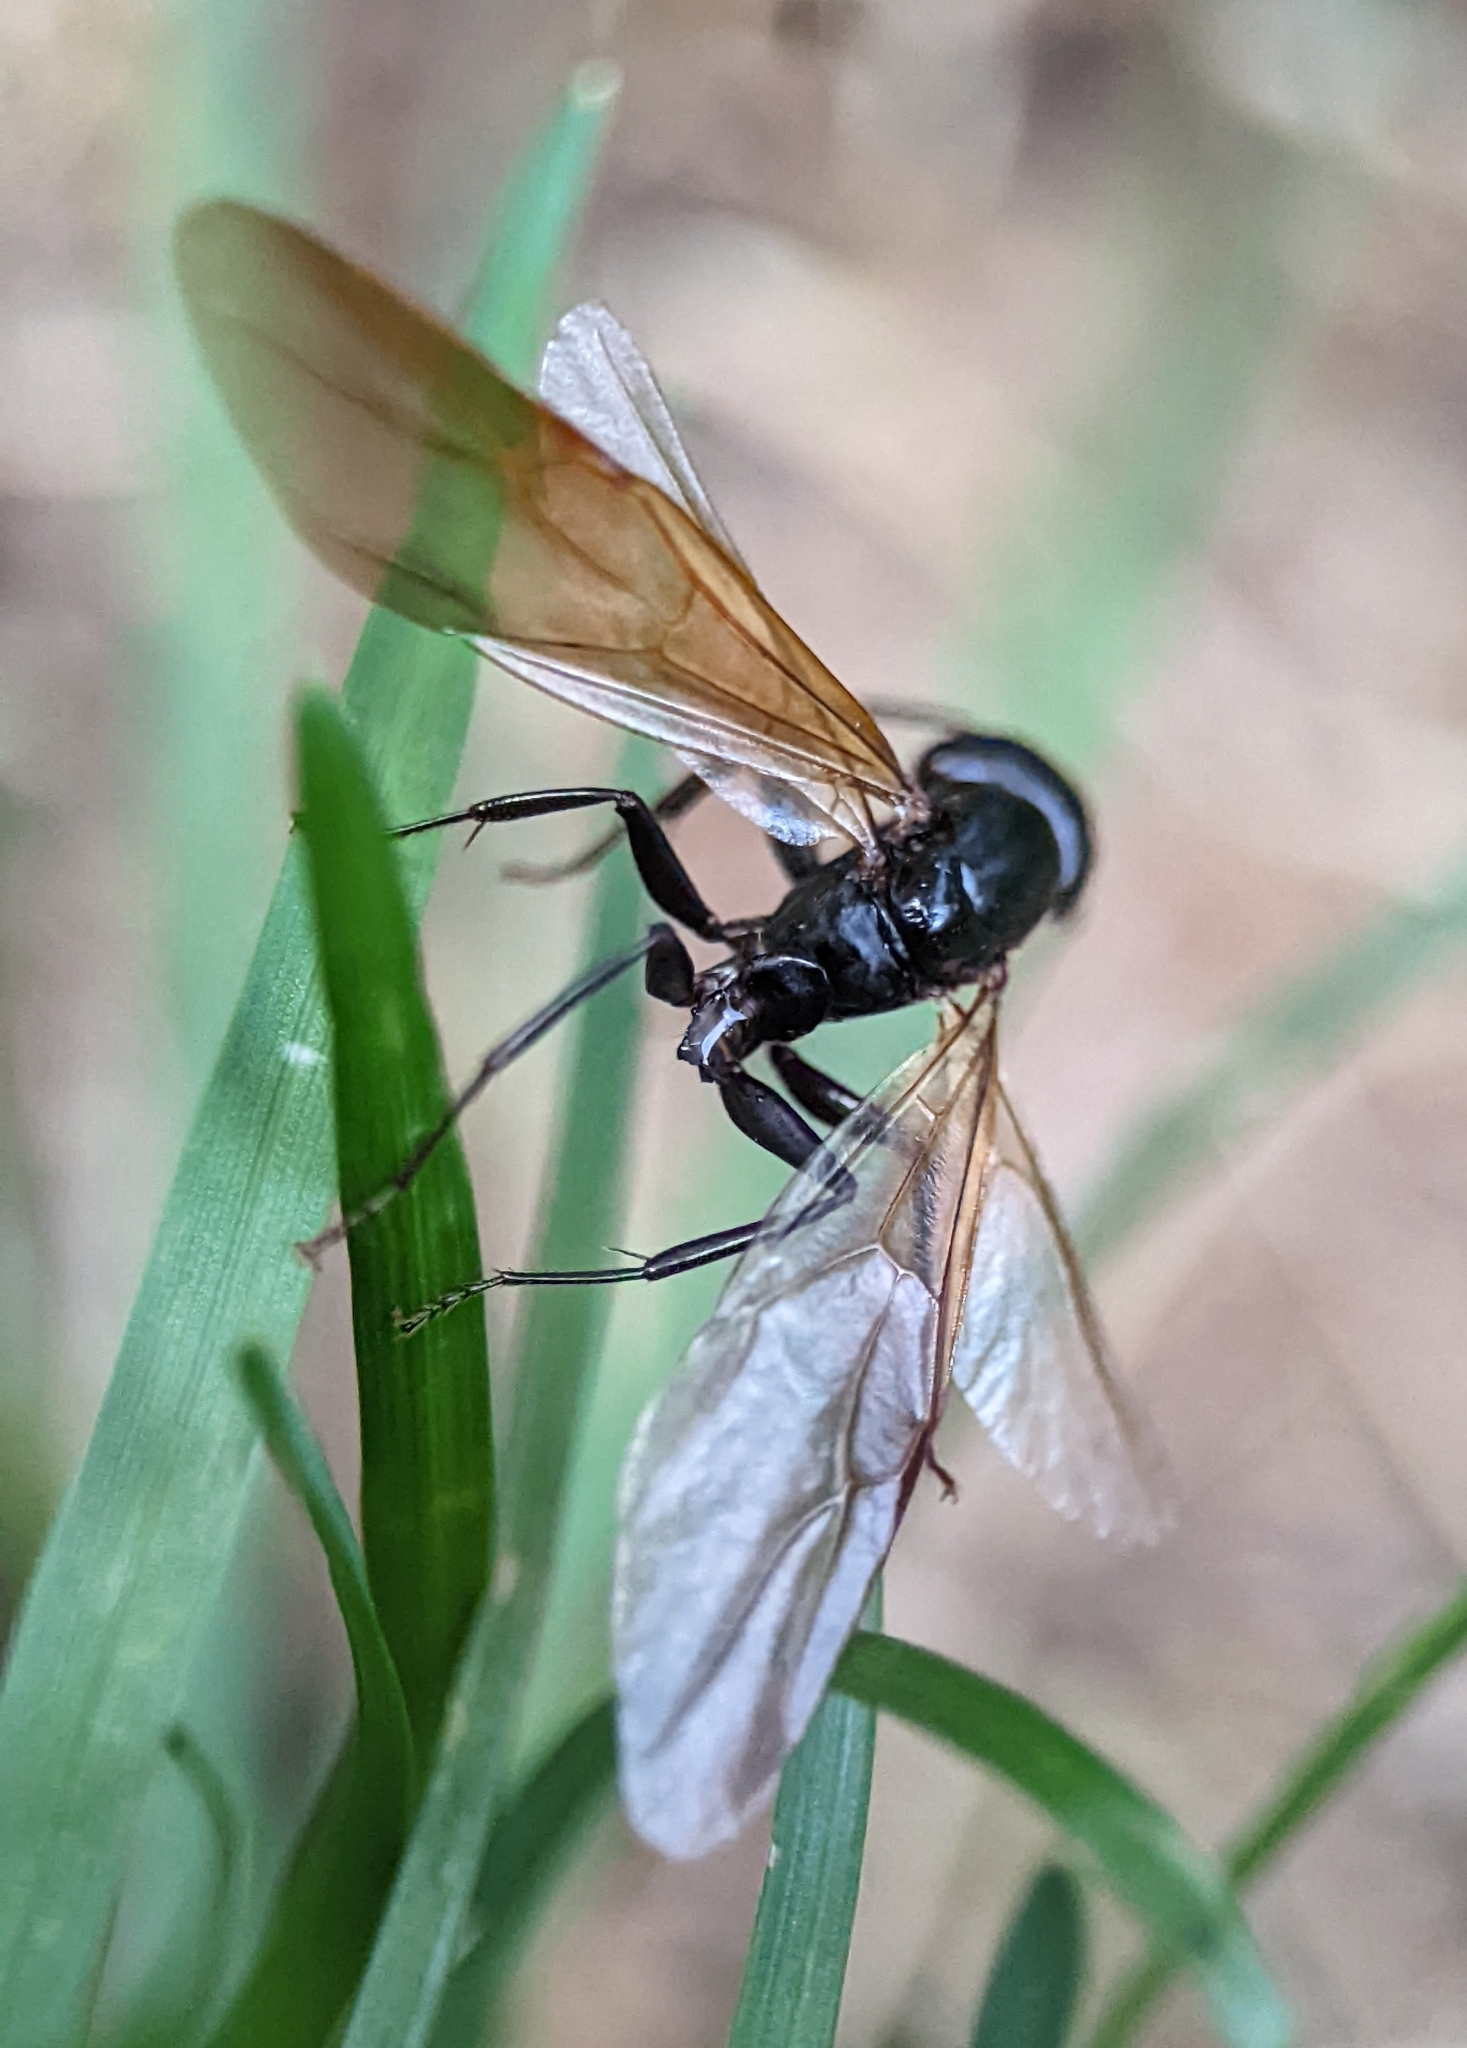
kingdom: Animalia
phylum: Arthropoda
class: Insecta
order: Hymenoptera
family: Formicidae
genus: Camponotus
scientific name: Camponotus pennsylvanicus
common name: Black carpenter ant
